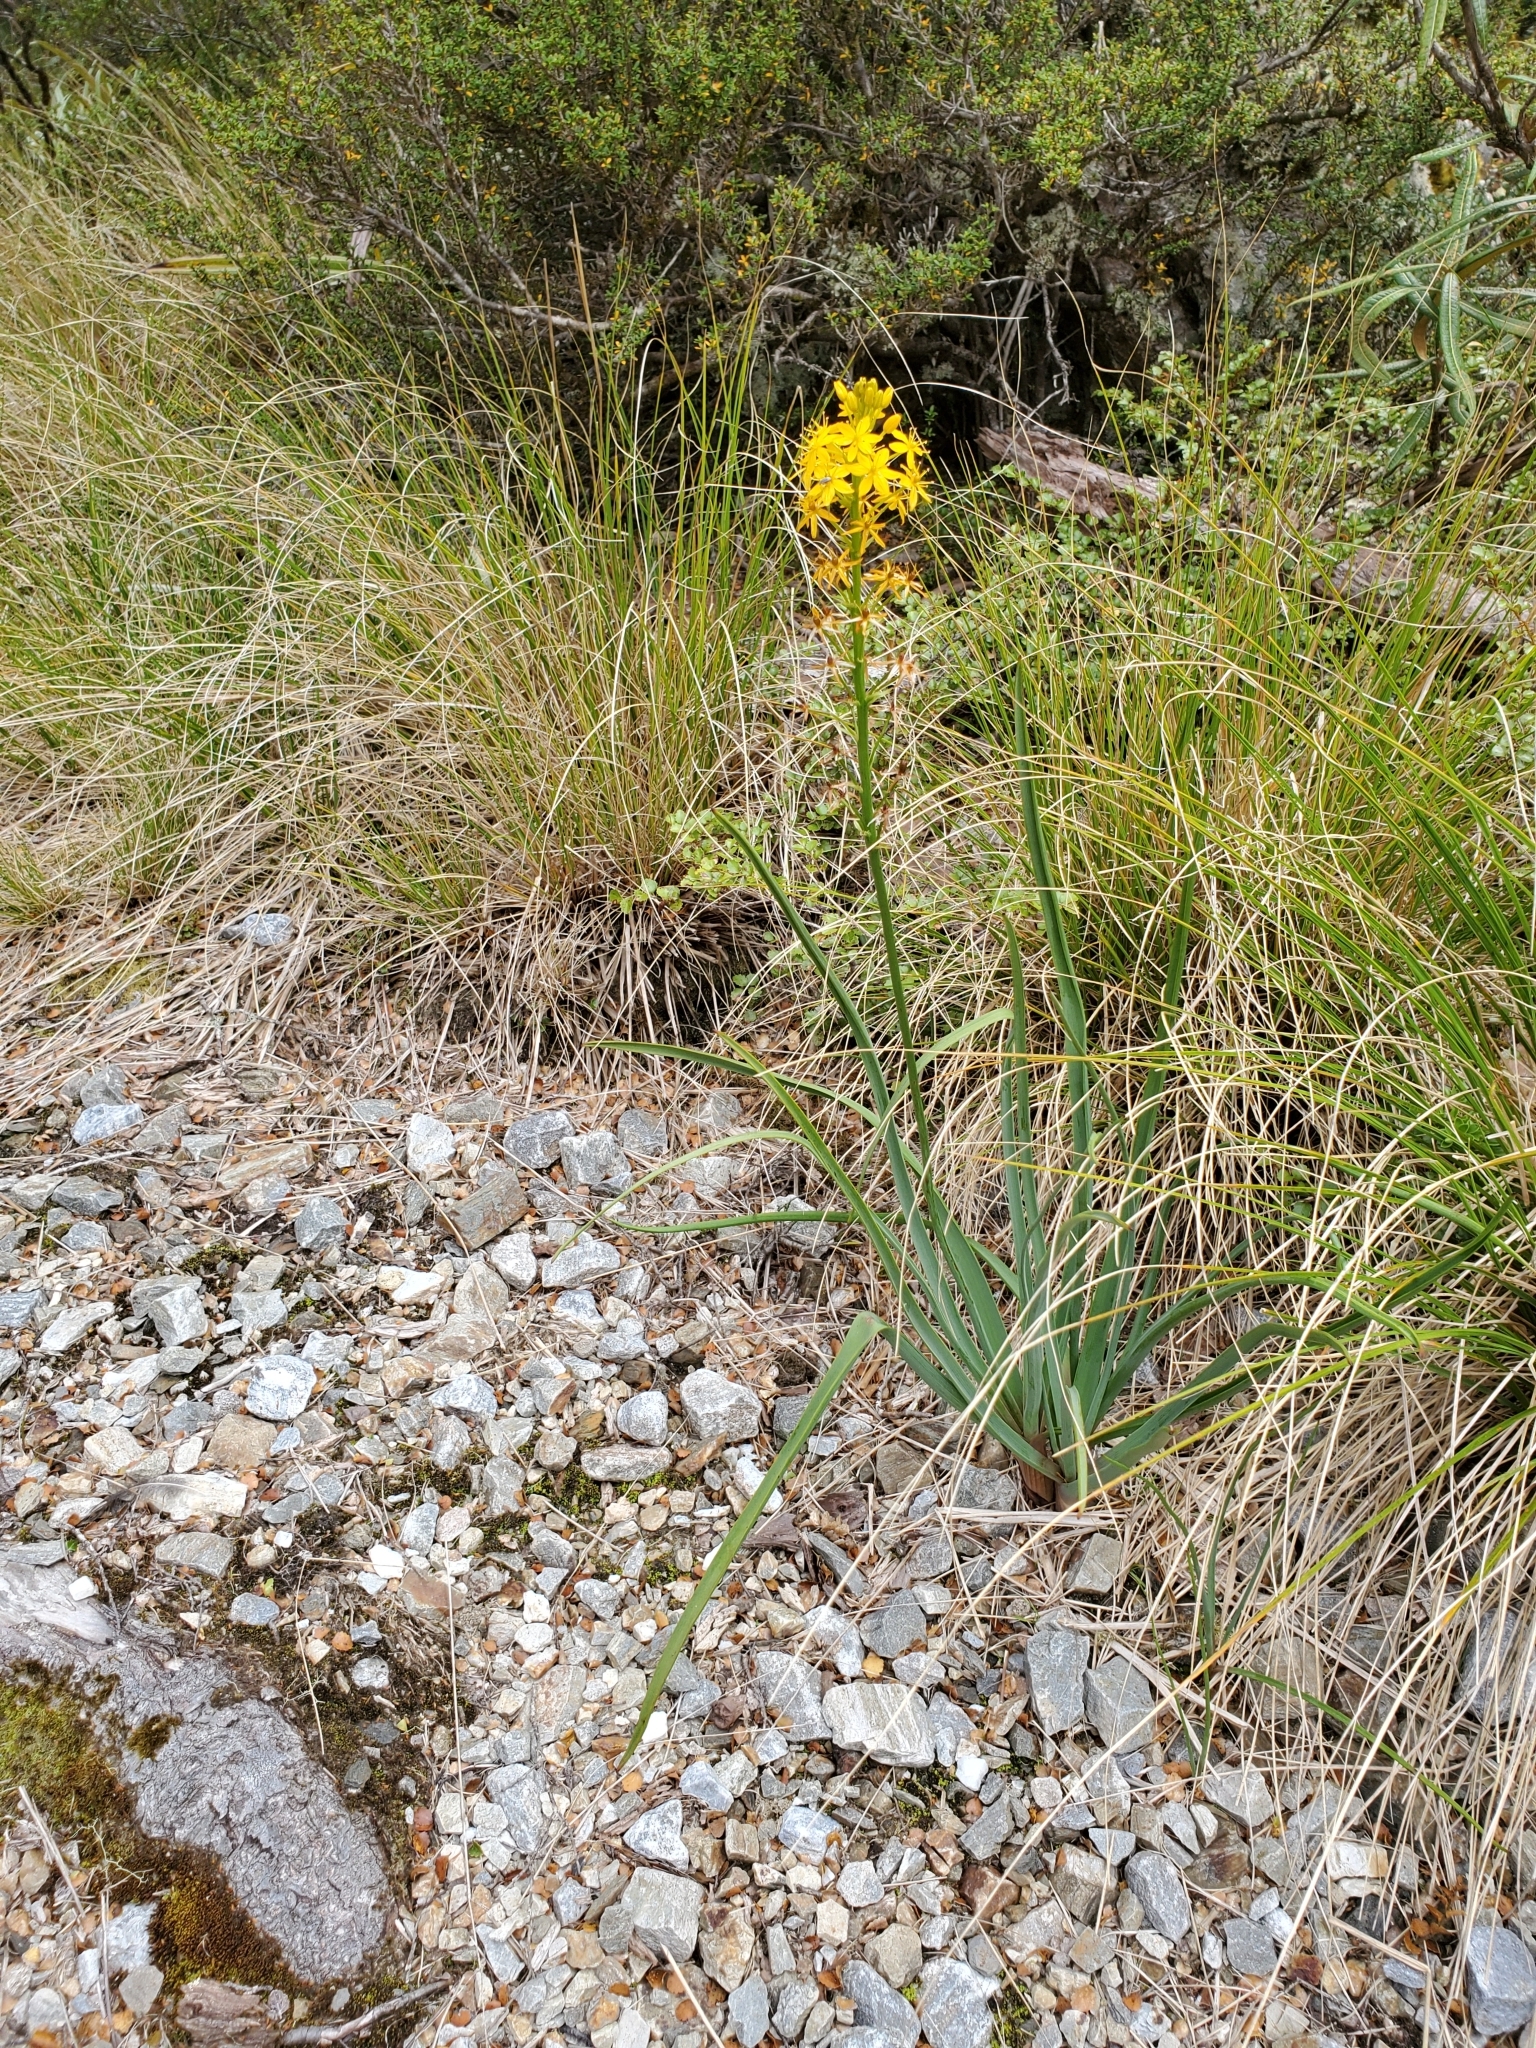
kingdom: Plantae
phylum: Tracheophyta
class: Liliopsida
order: Asparagales
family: Asphodelaceae
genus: Bulbinella
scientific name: Bulbinella hookeri
